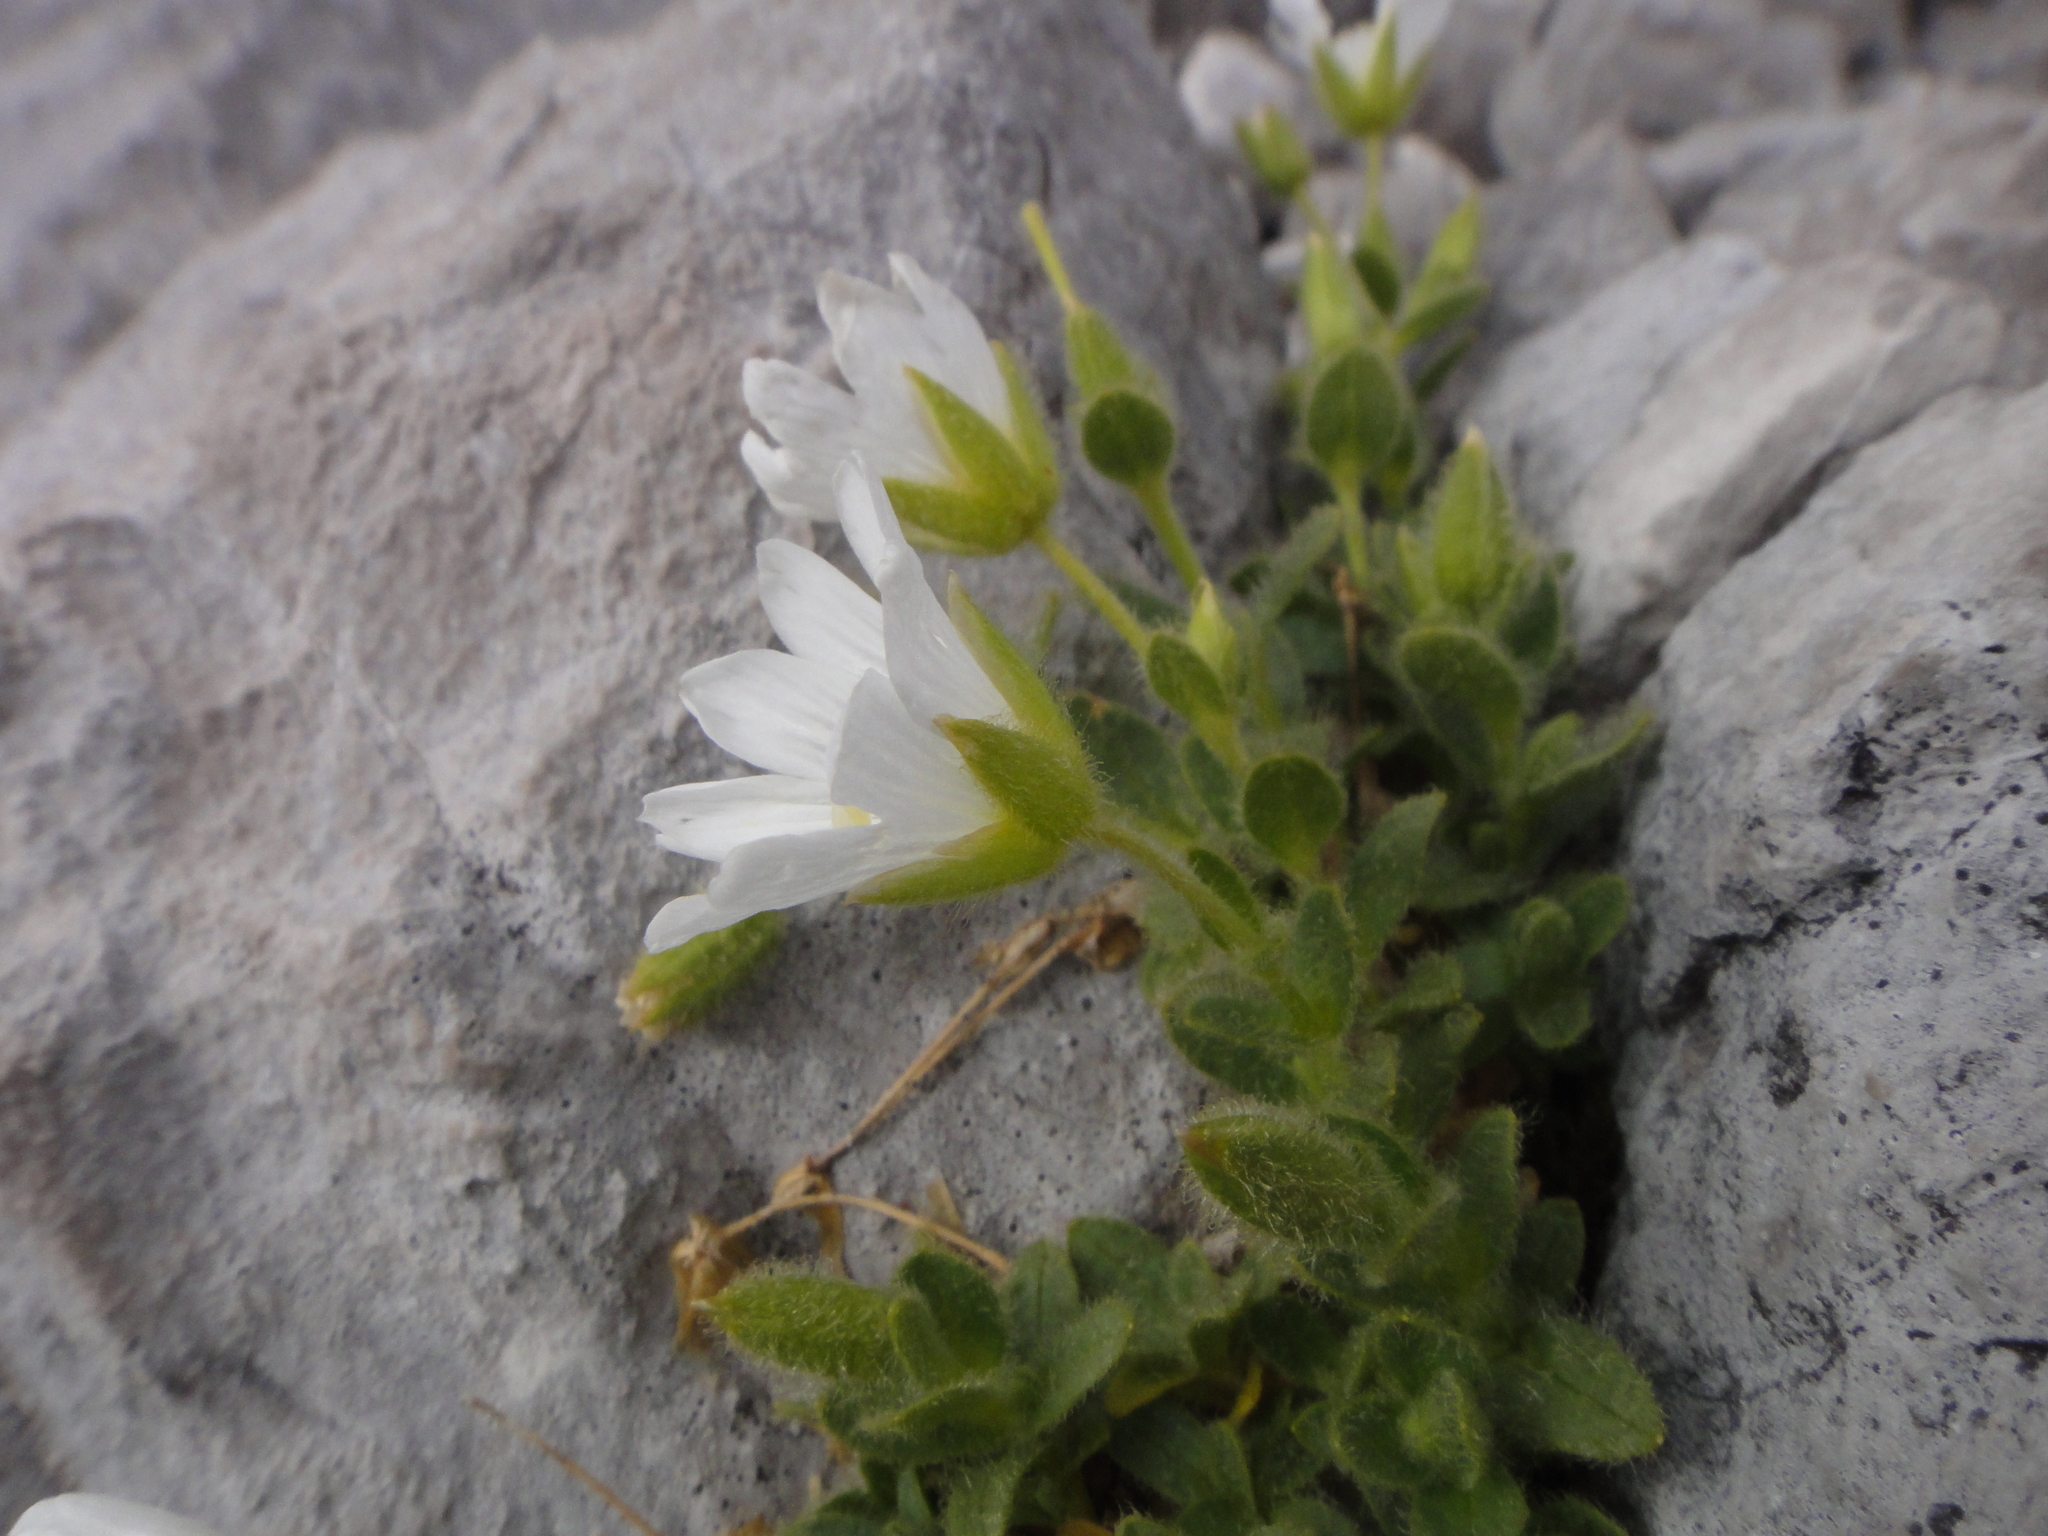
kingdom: Plantae
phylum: Tracheophyta
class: Magnoliopsida
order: Caryophyllales
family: Caryophyllaceae
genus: Cerastium
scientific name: Cerastium uniflorum
